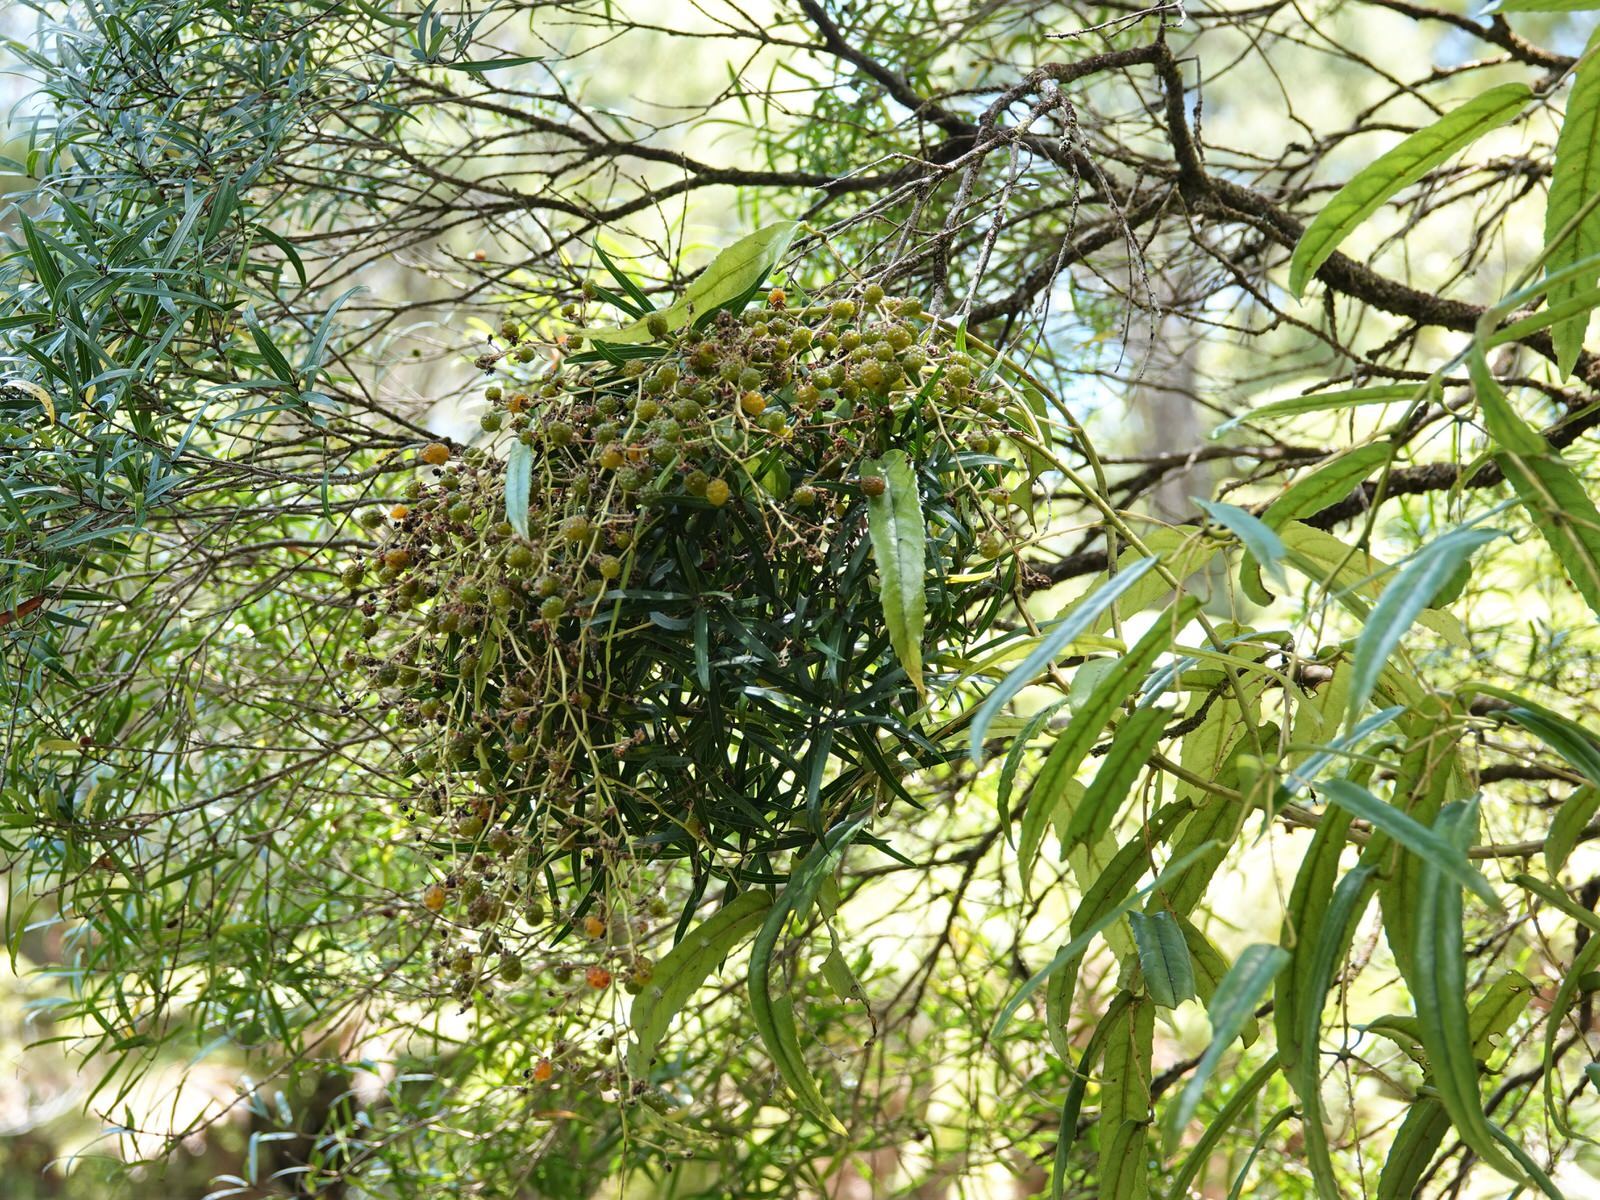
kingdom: Plantae
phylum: Tracheophyta
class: Magnoliopsida
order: Rosales
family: Rosaceae
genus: Rubus
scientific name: Rubus cissoides
